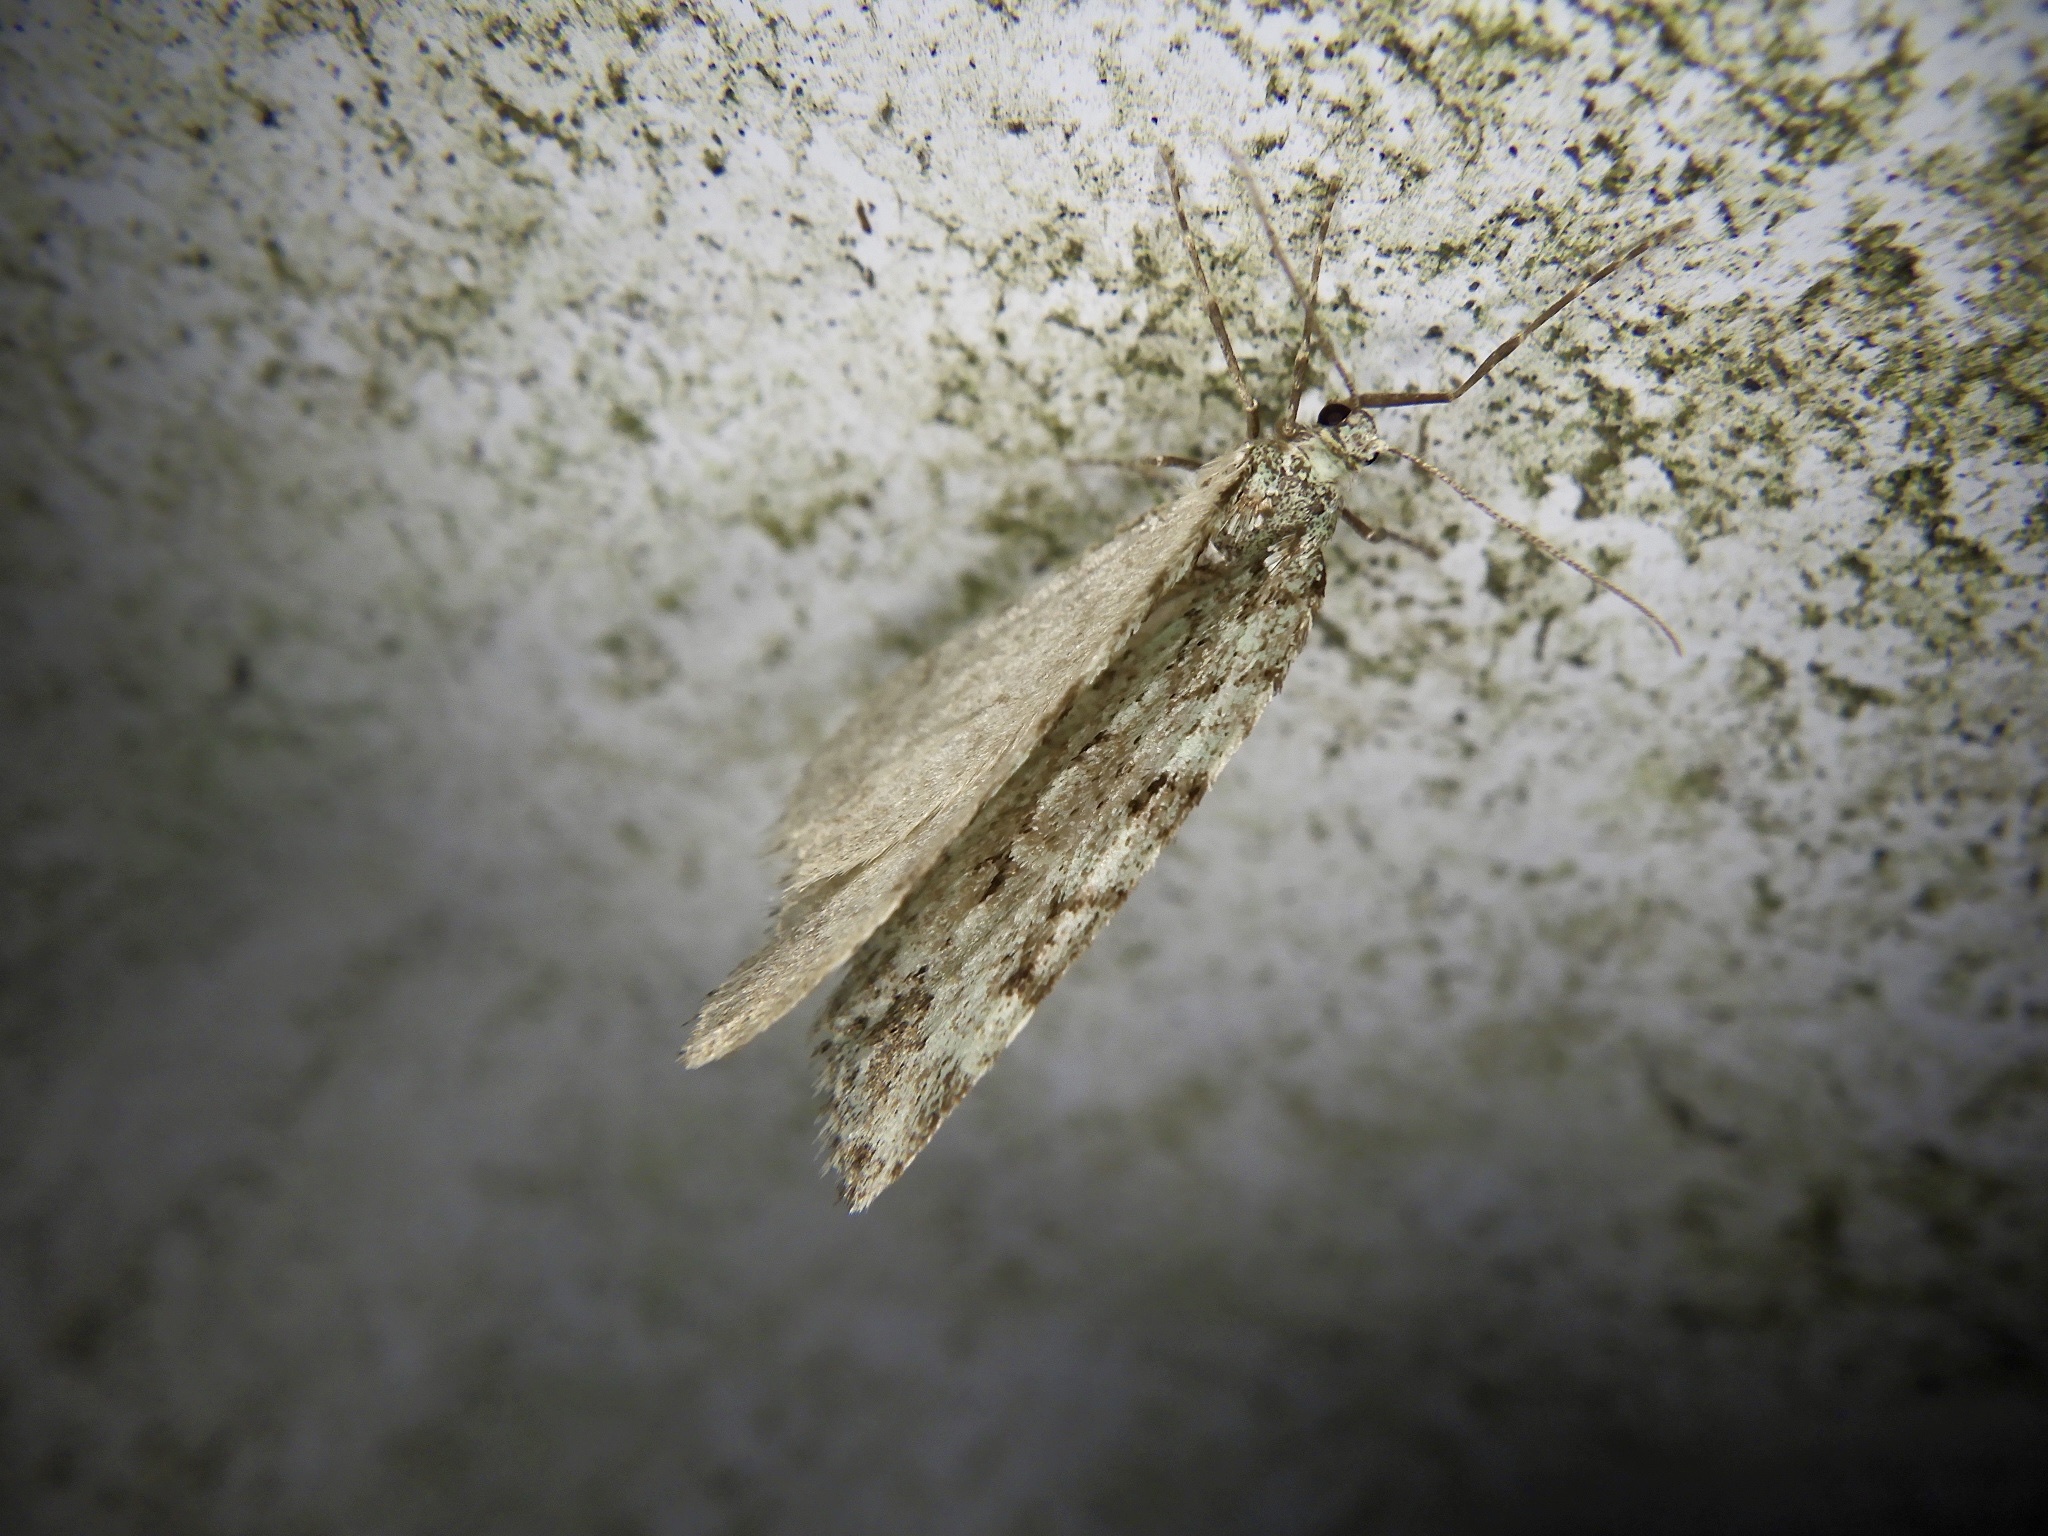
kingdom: Animalia
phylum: Arthropoda
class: Insecta
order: Lepidoptera
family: Geometridae
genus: Epirrita
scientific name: Epirrita viridipurpurescens
